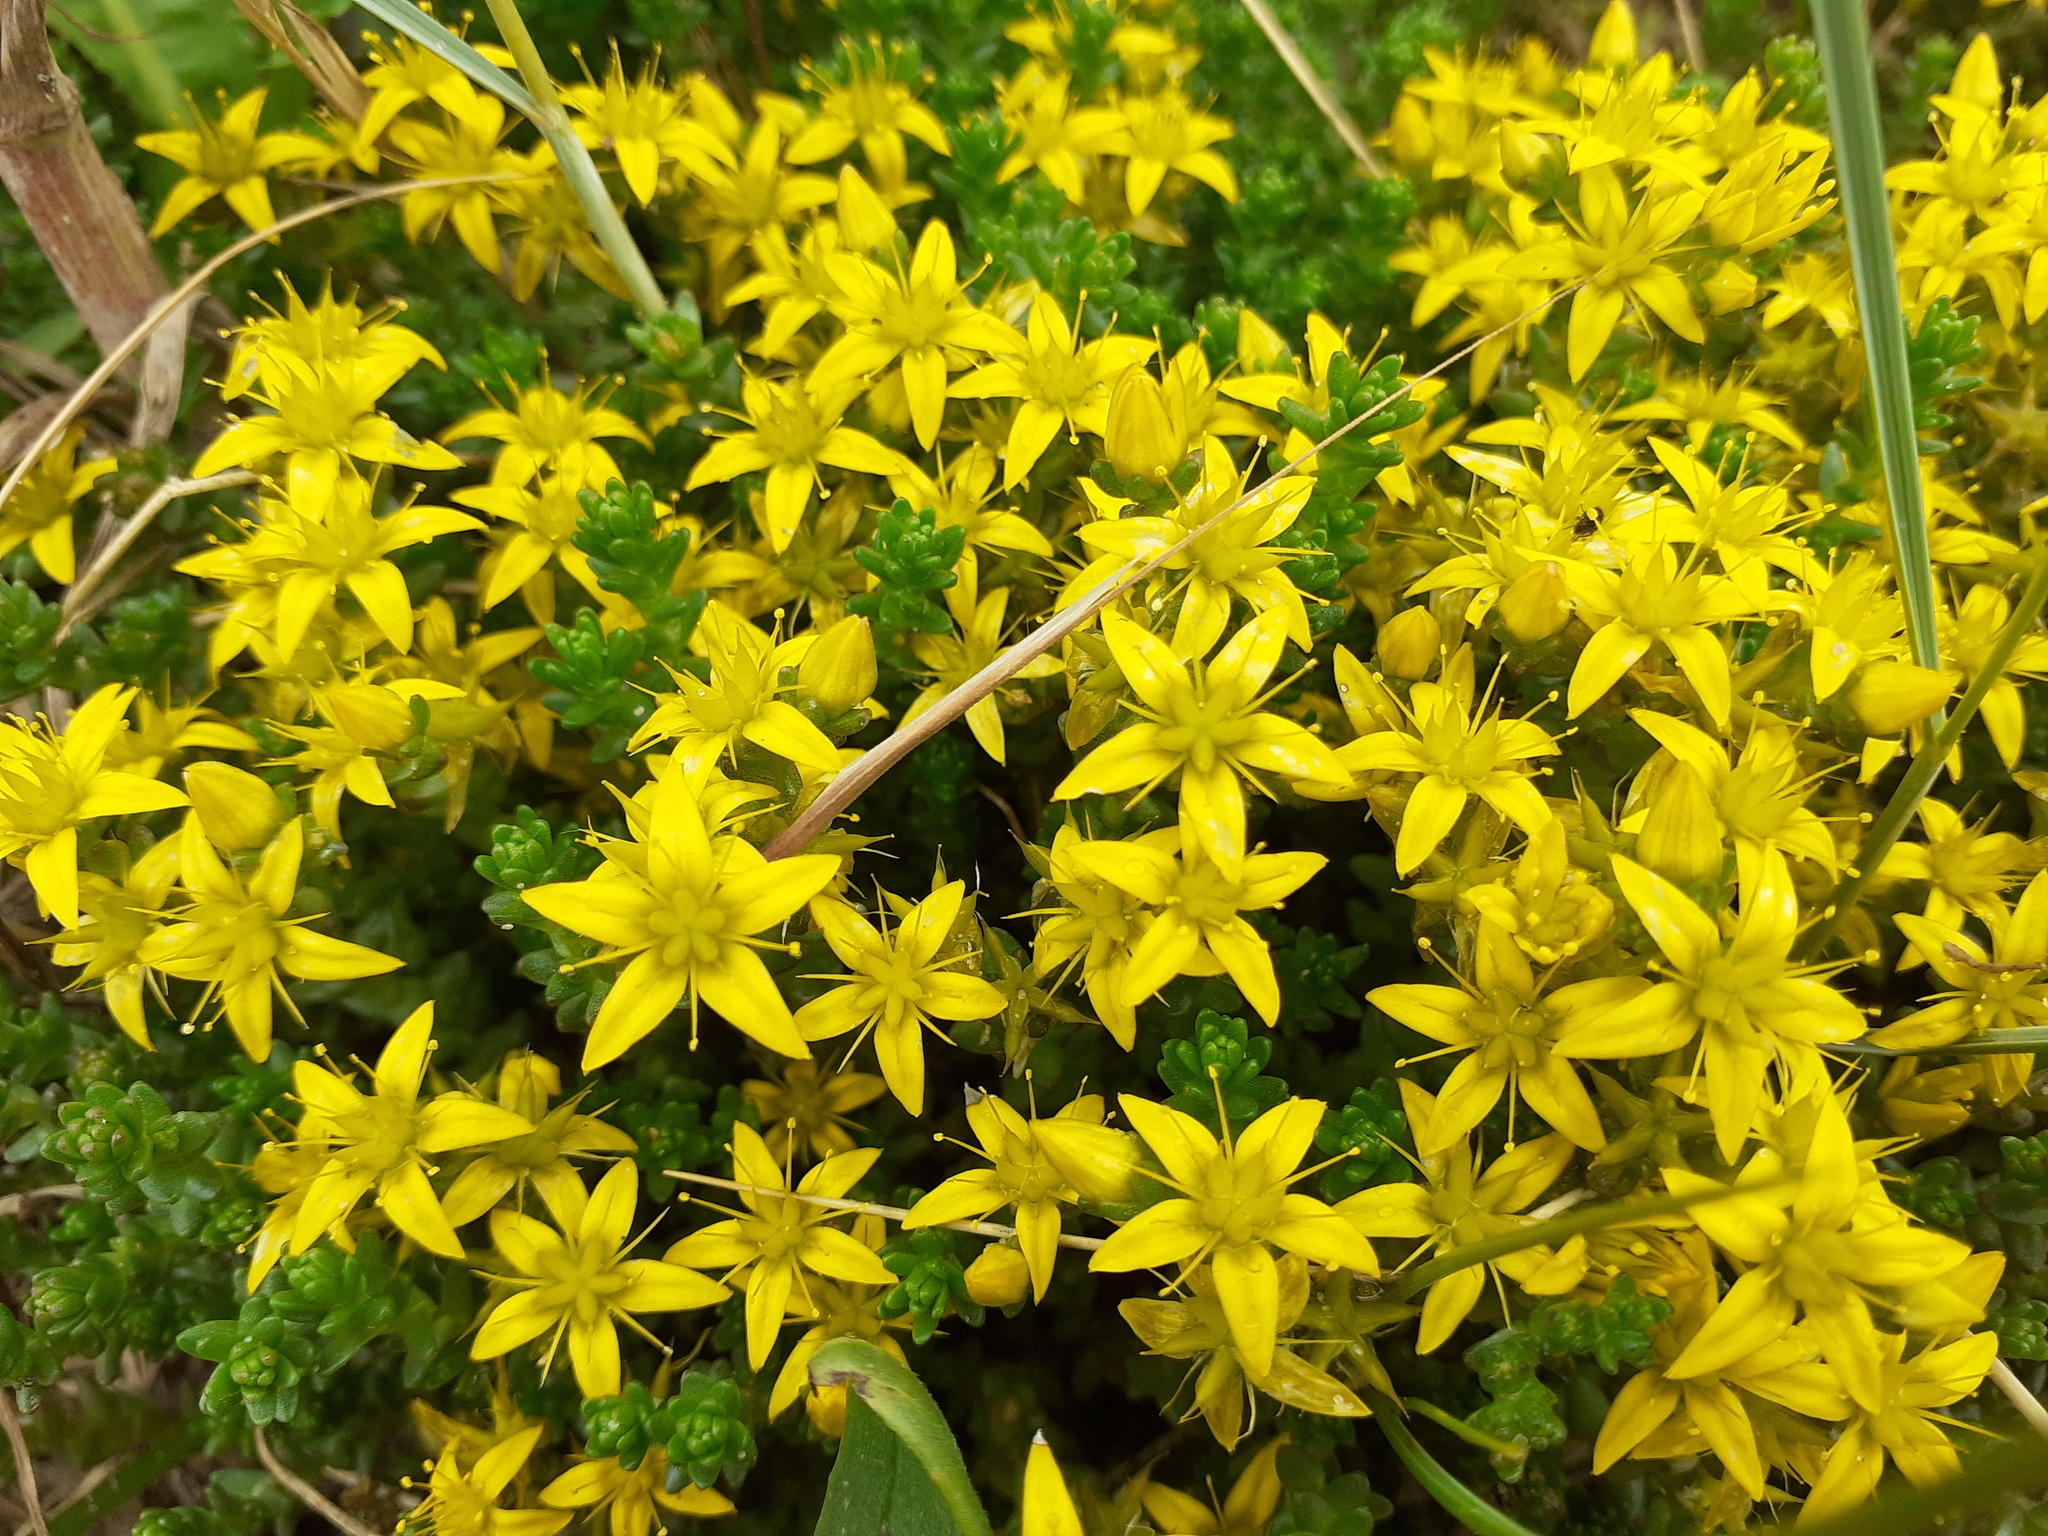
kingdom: Plantae
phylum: Tracheophyta
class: Magnoliopsida
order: Saxifragales
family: Crassulaceae
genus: Sedum
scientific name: Sedum acre
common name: Biting stonecrop
